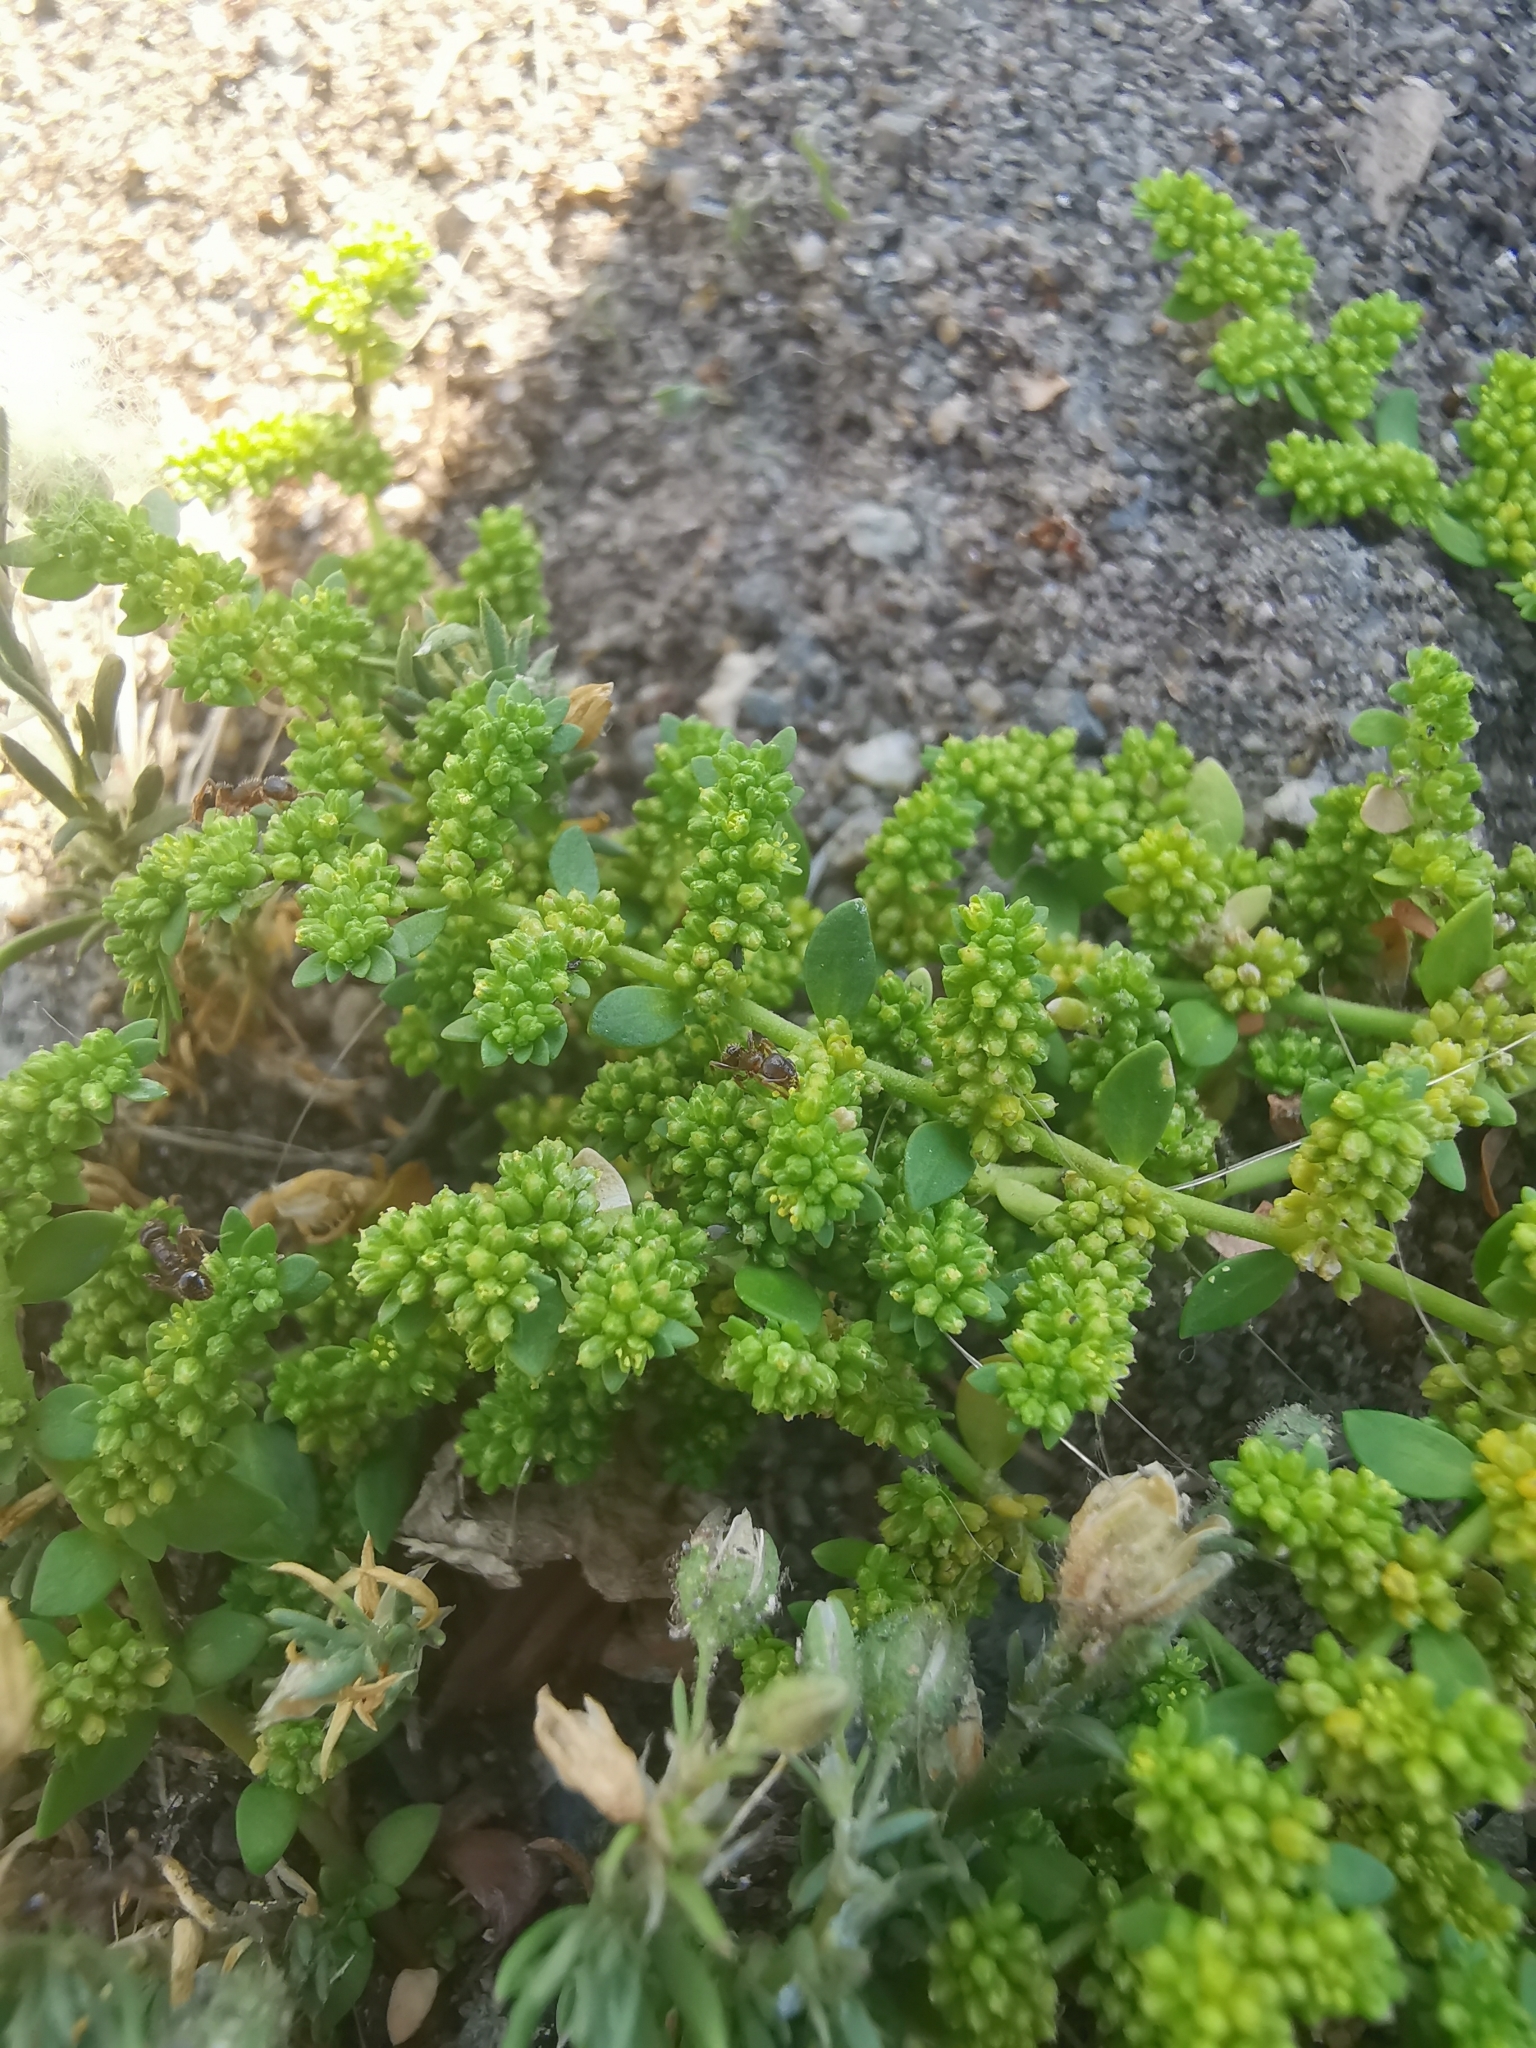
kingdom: Plantae
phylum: Tracheophyta
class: Magnoliopsida
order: Caryophyllales
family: Caryophyllaceae
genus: Herniaria
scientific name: Herniaria glabra
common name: Smooth rupturewort
